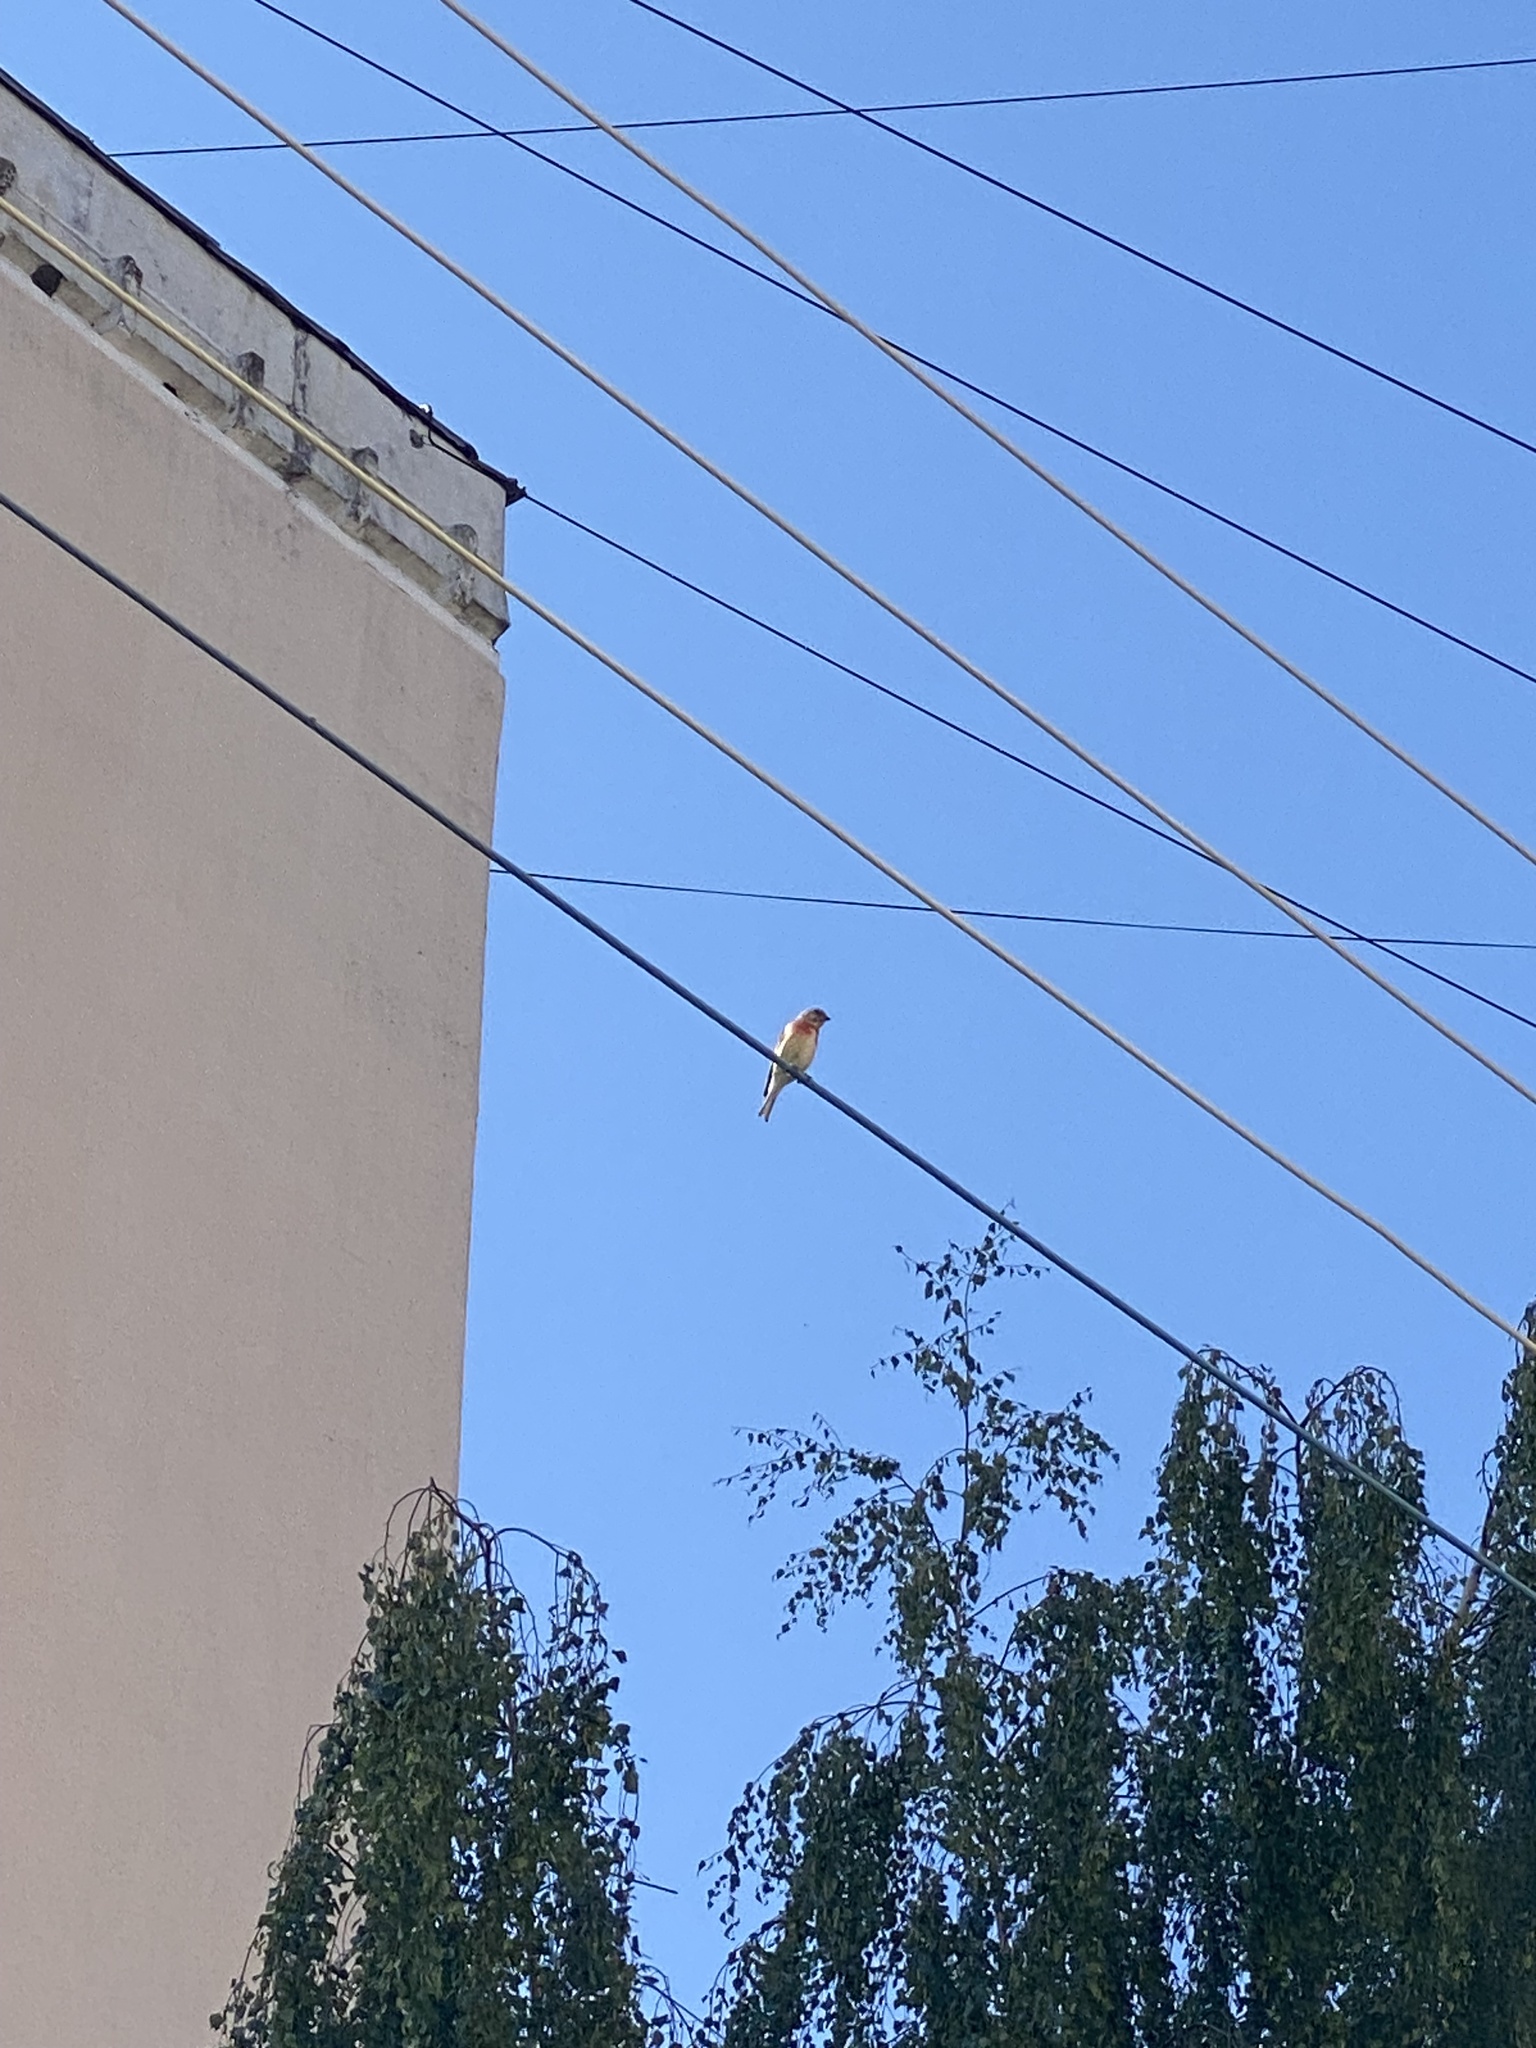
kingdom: Animalia
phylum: Chordata
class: Aves
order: Passeriformes
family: Fringillidae
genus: Linaria
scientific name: Linaria cannabina
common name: Common linnet
